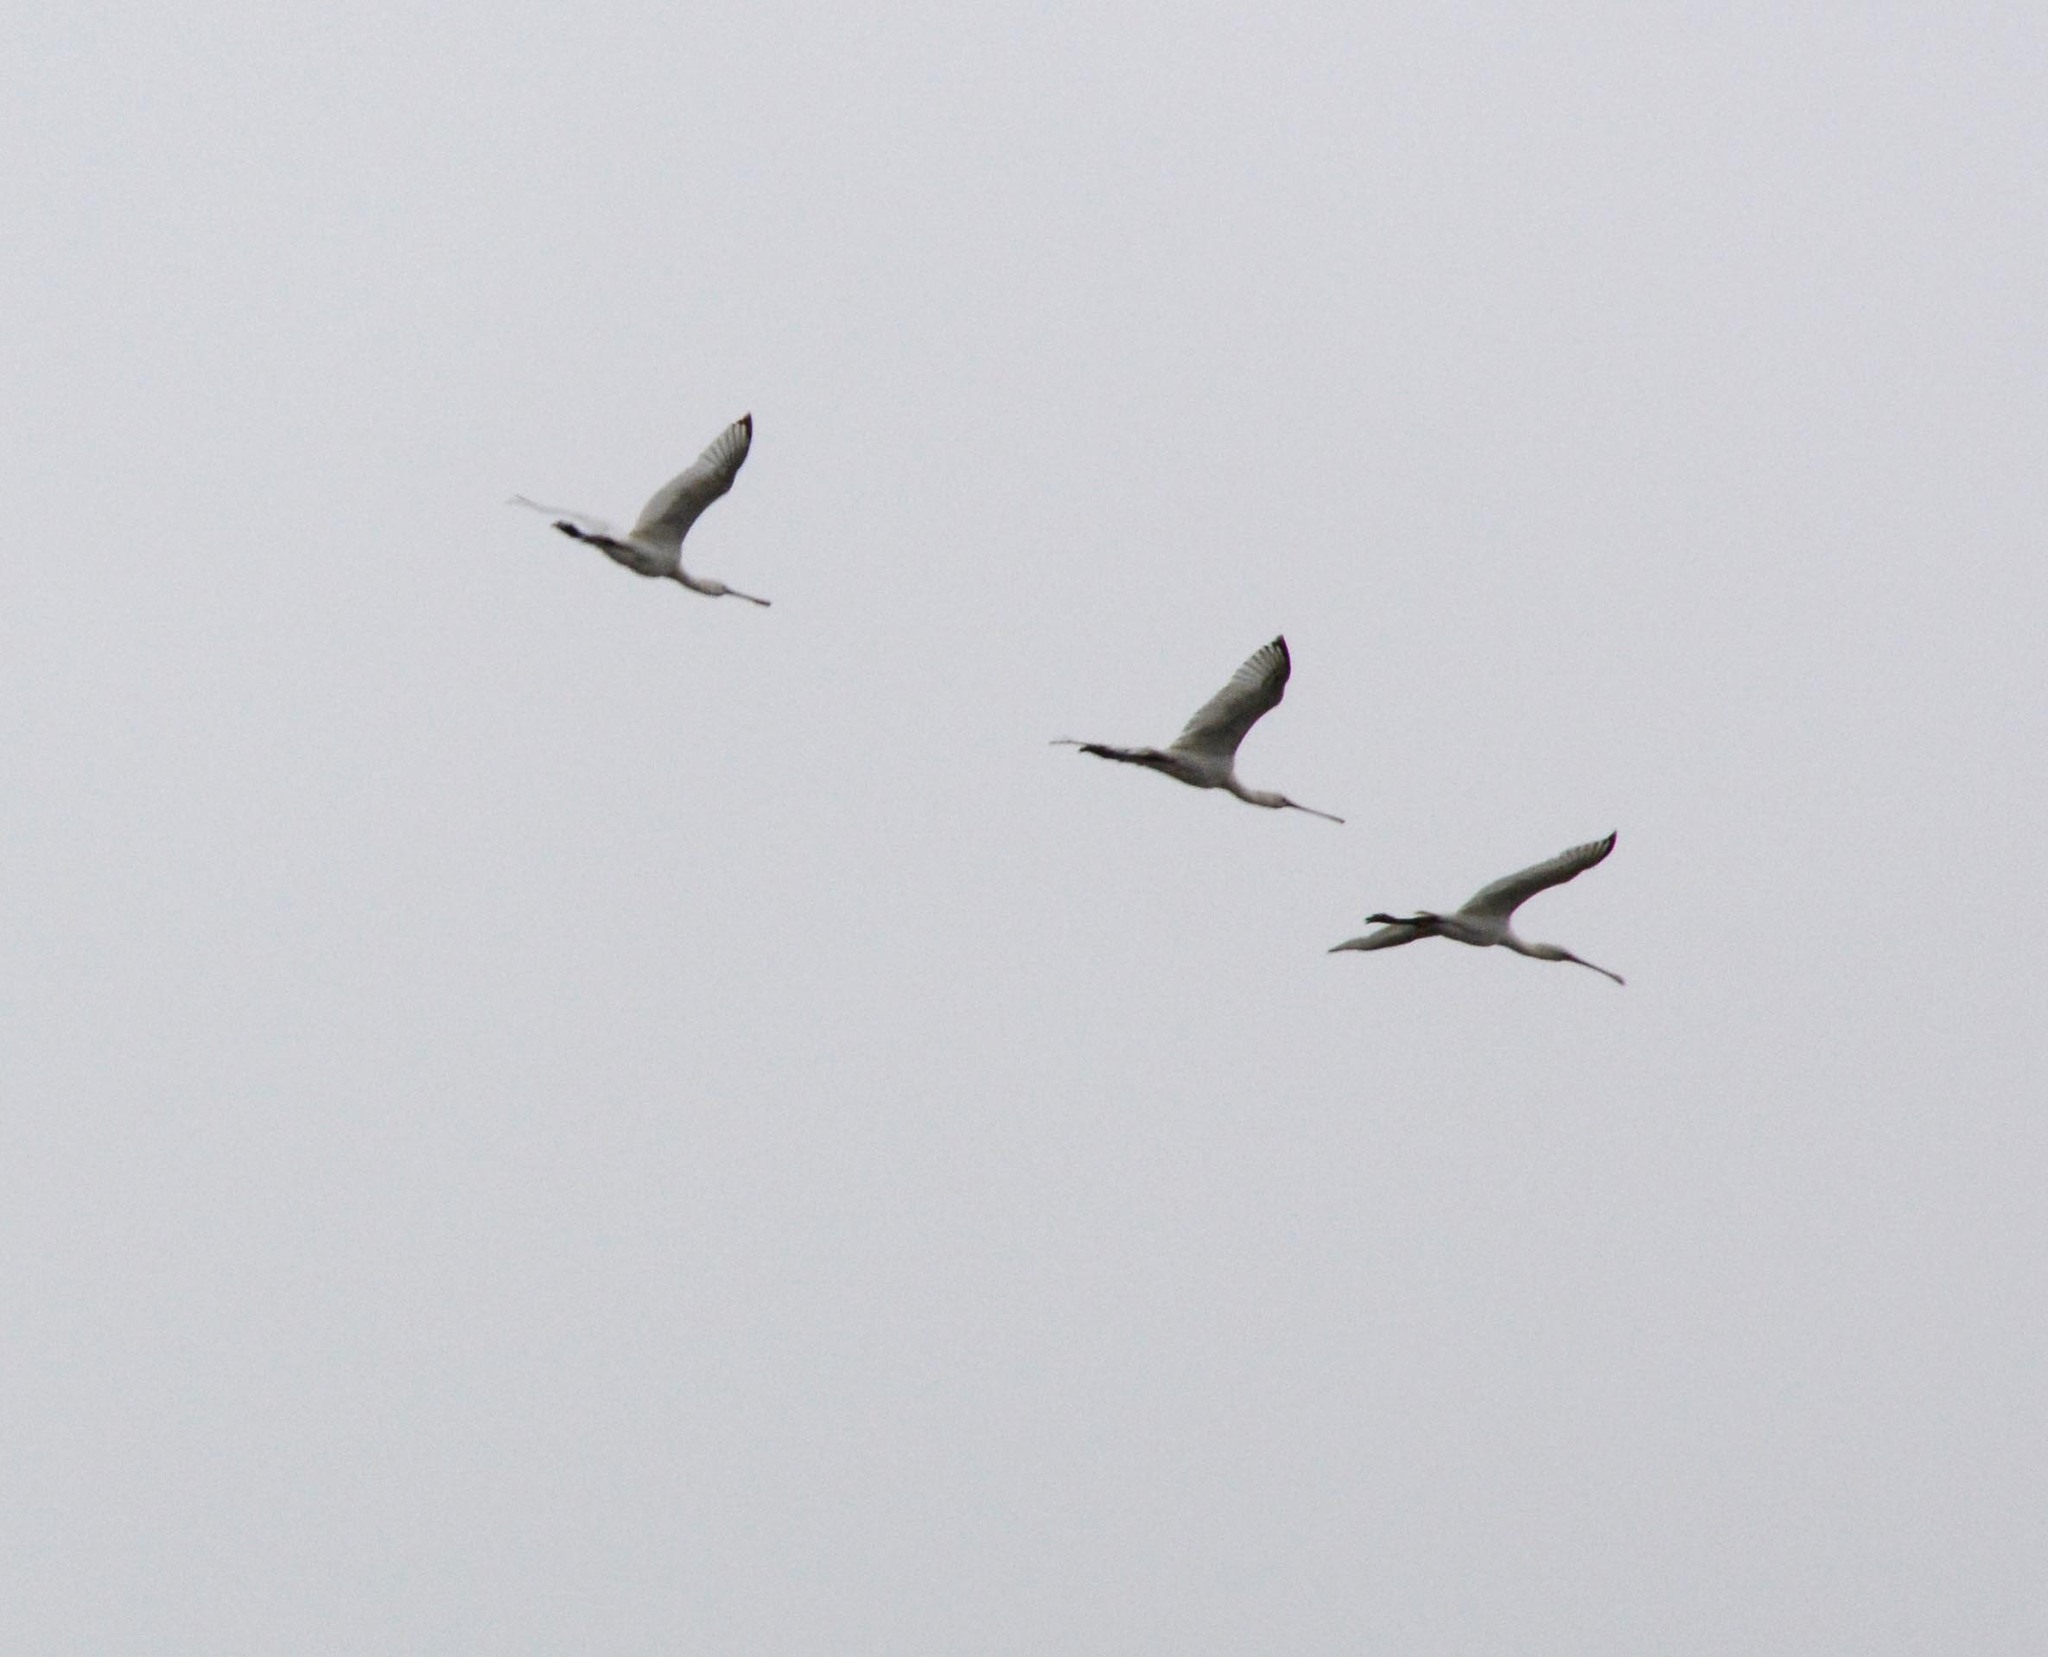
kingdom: Animalia
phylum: Chordata
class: Aves
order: Pelecaniformes
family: Threskiornithidae
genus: Platalea
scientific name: Platalea leucorodia
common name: Eurasian spoonbill
